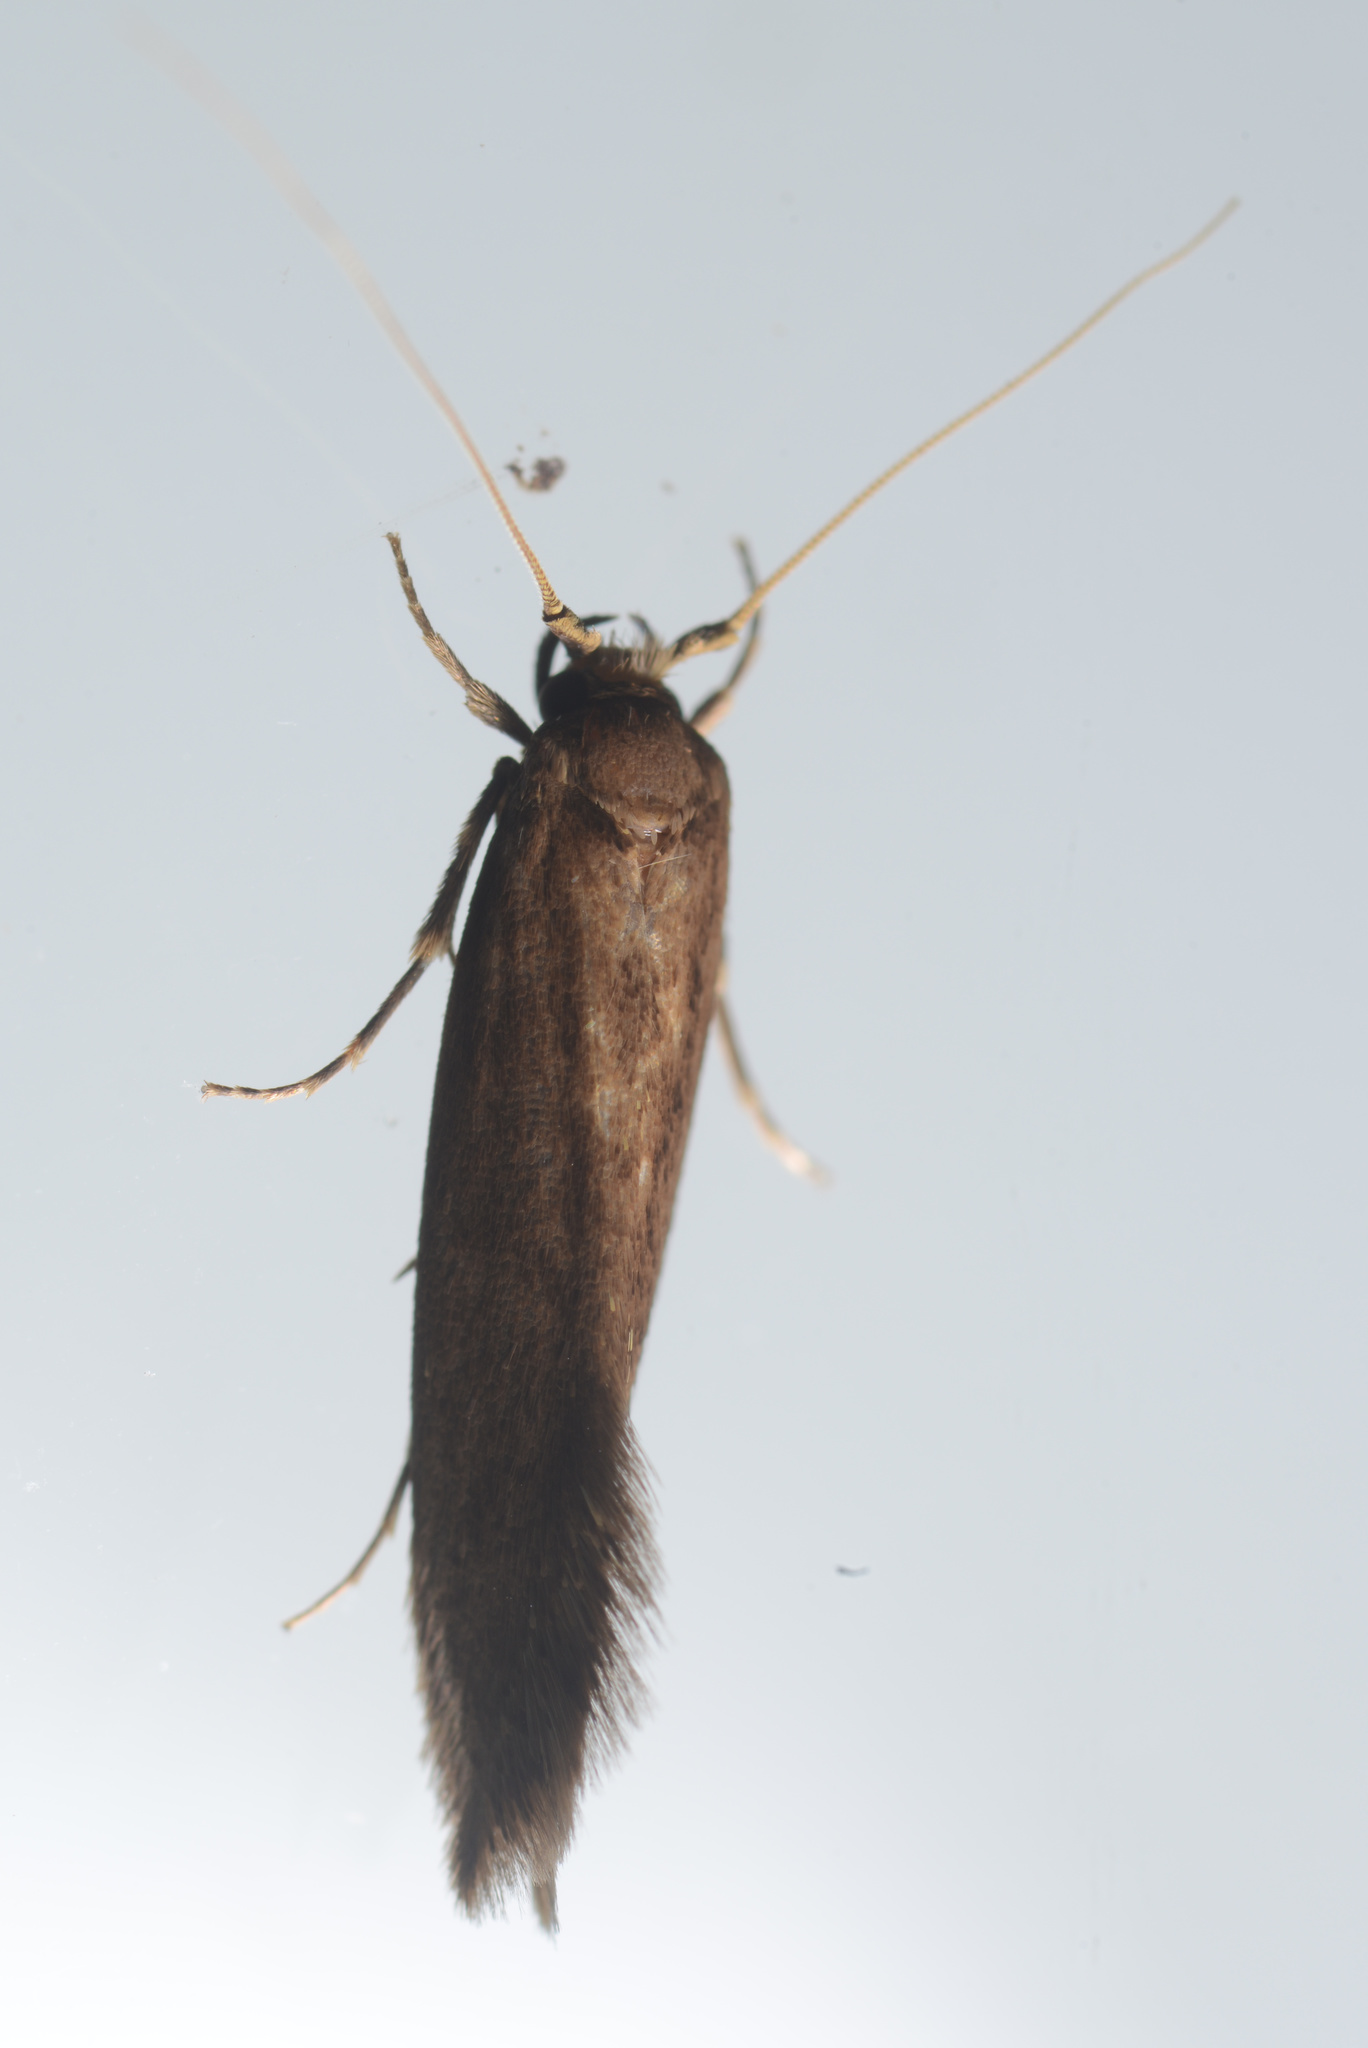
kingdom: Animalia
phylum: Arthropoda
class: Insecta
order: Lepidoptera
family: Tineidae
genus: Opogona
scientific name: Opogona omoscopa
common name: Moth
